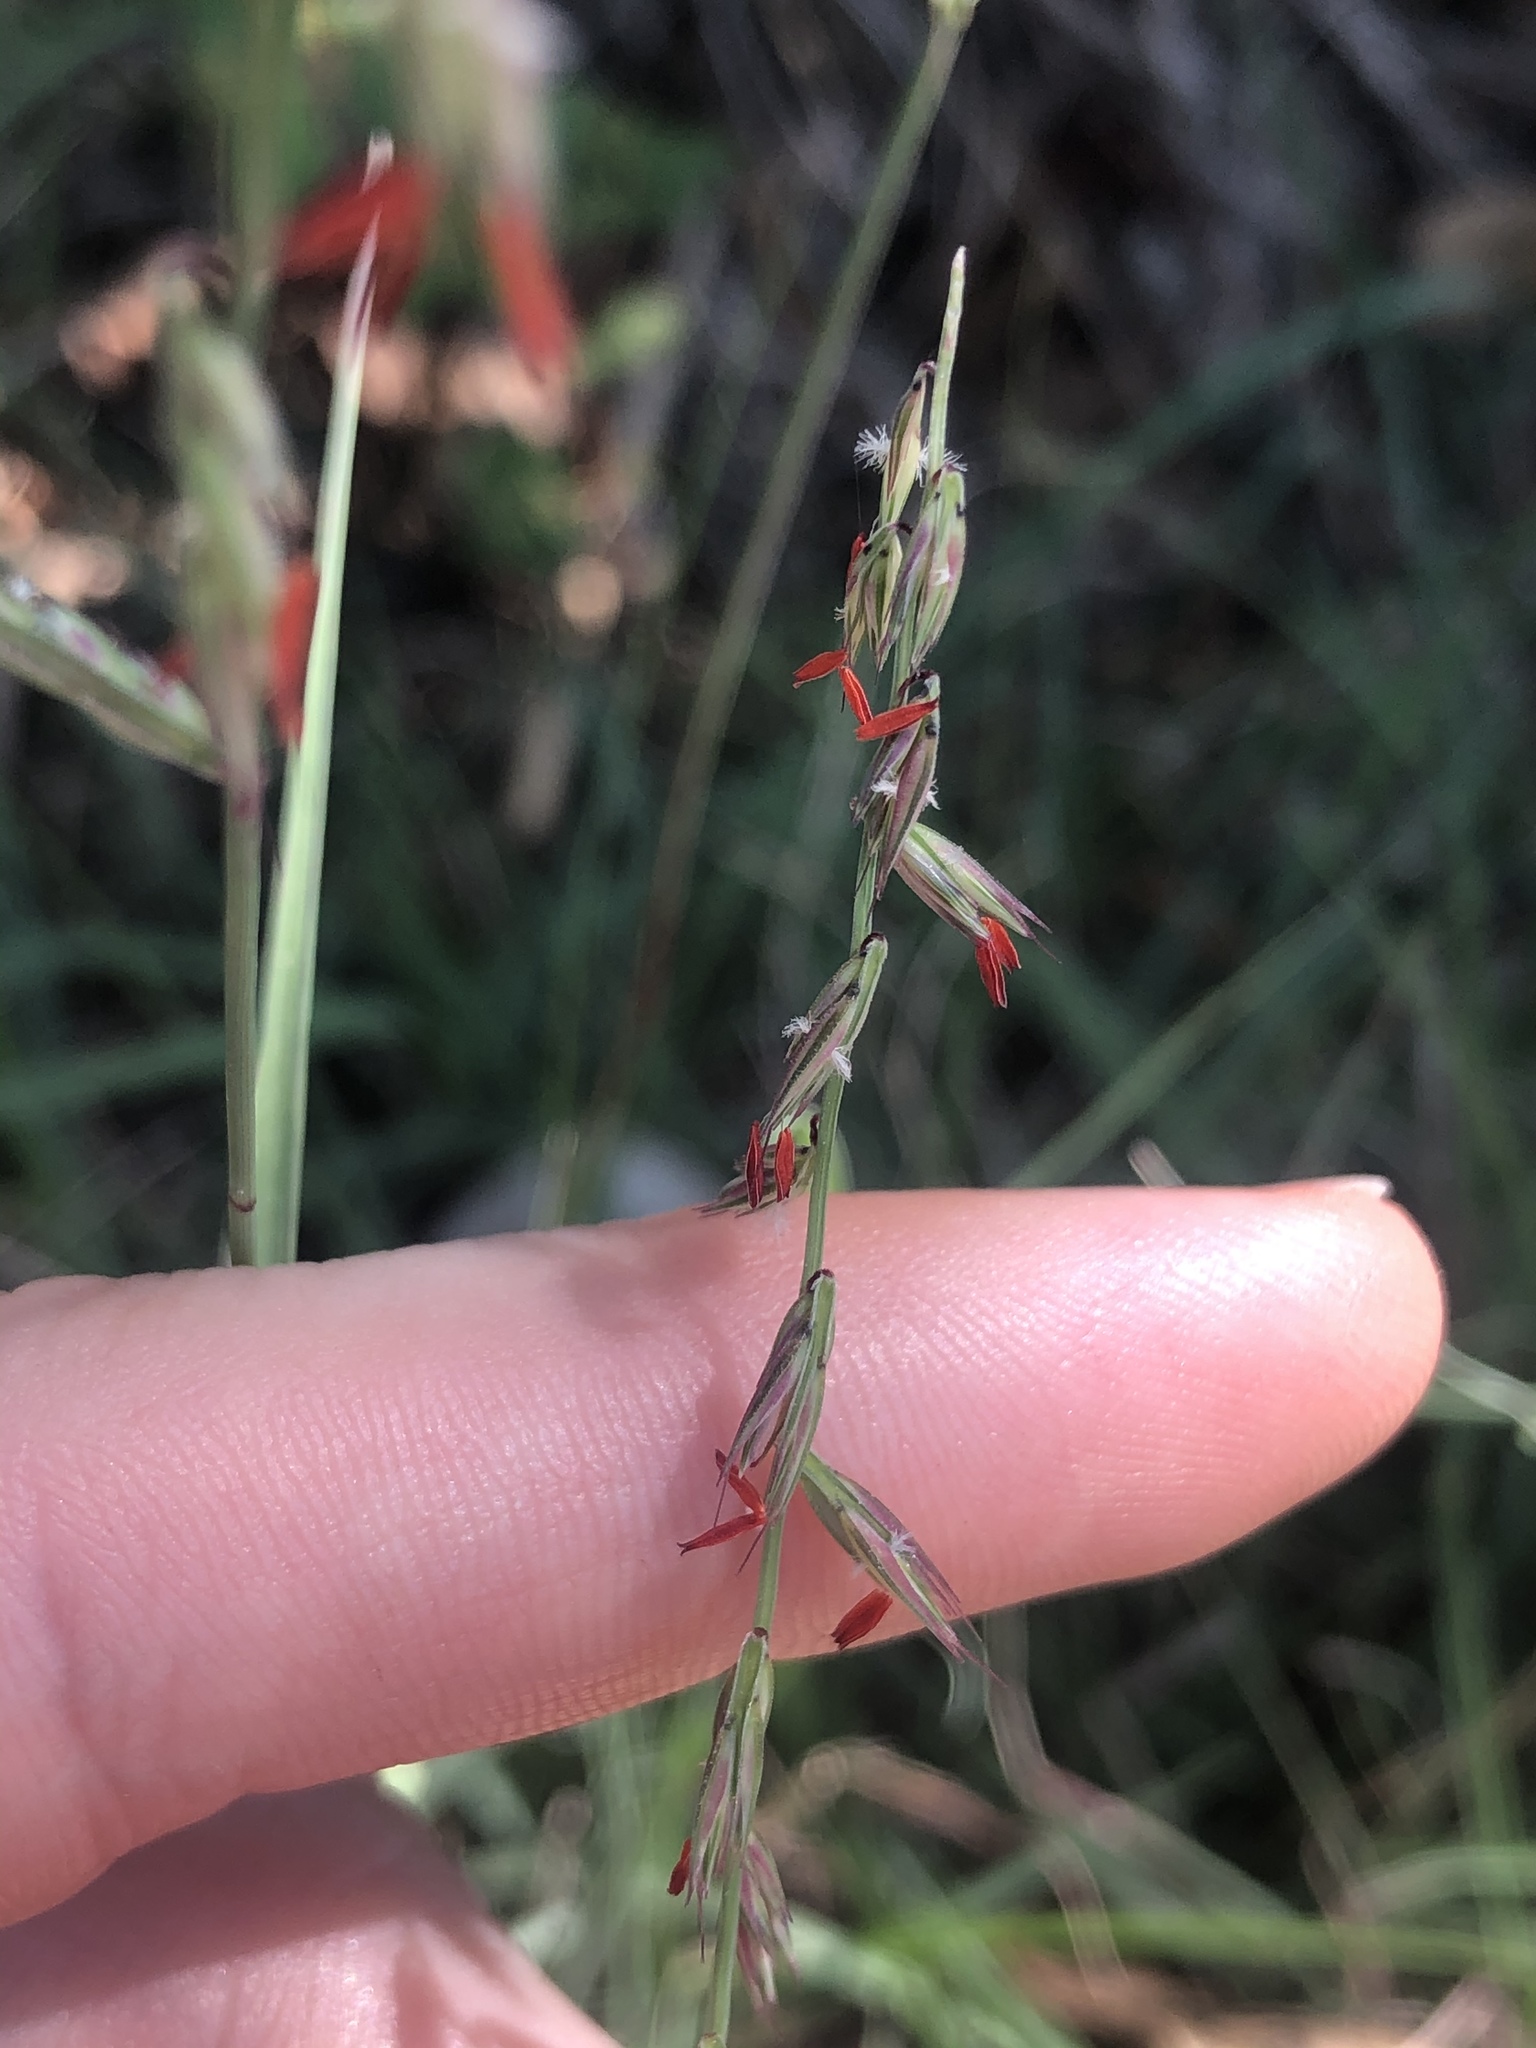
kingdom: Plantae
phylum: Tracheophyta
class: Liliopsida
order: Poales
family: Poaceae
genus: Bouteloua
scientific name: Bouteloua curtipendula
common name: Side-oats grama
